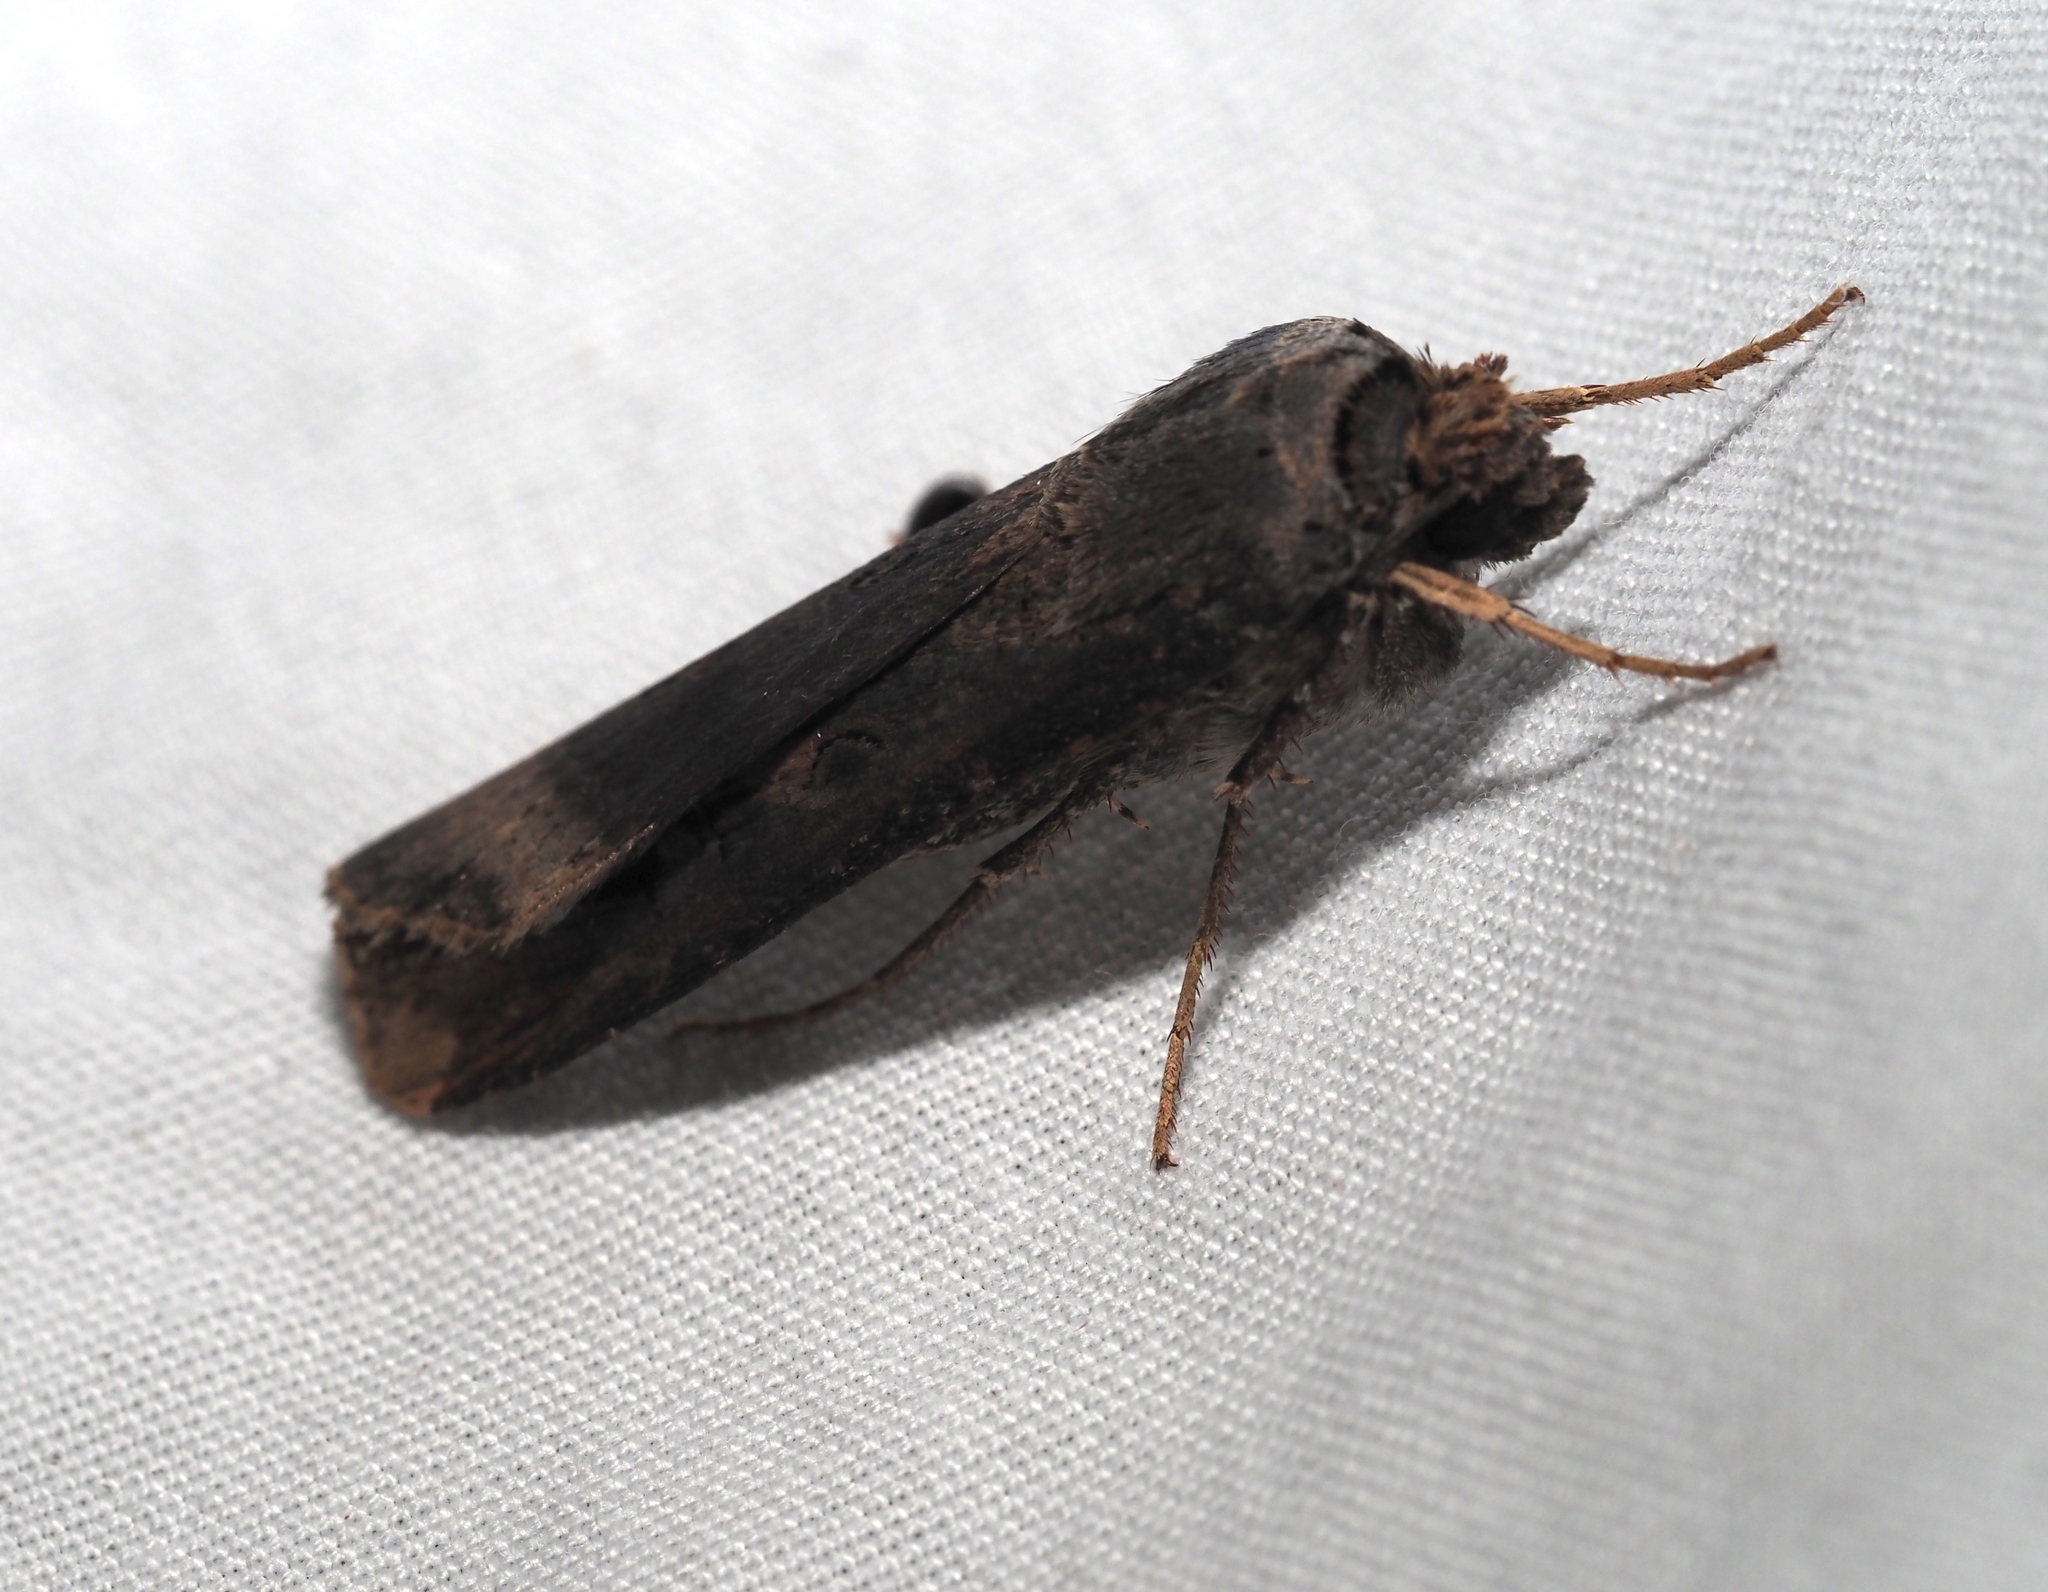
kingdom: Animalia
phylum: Arthropoda
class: Insecta
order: Lepidoptera
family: Noctuidae
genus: Agrotis
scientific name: Agrotis ipsilon
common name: Dark sword-grass
